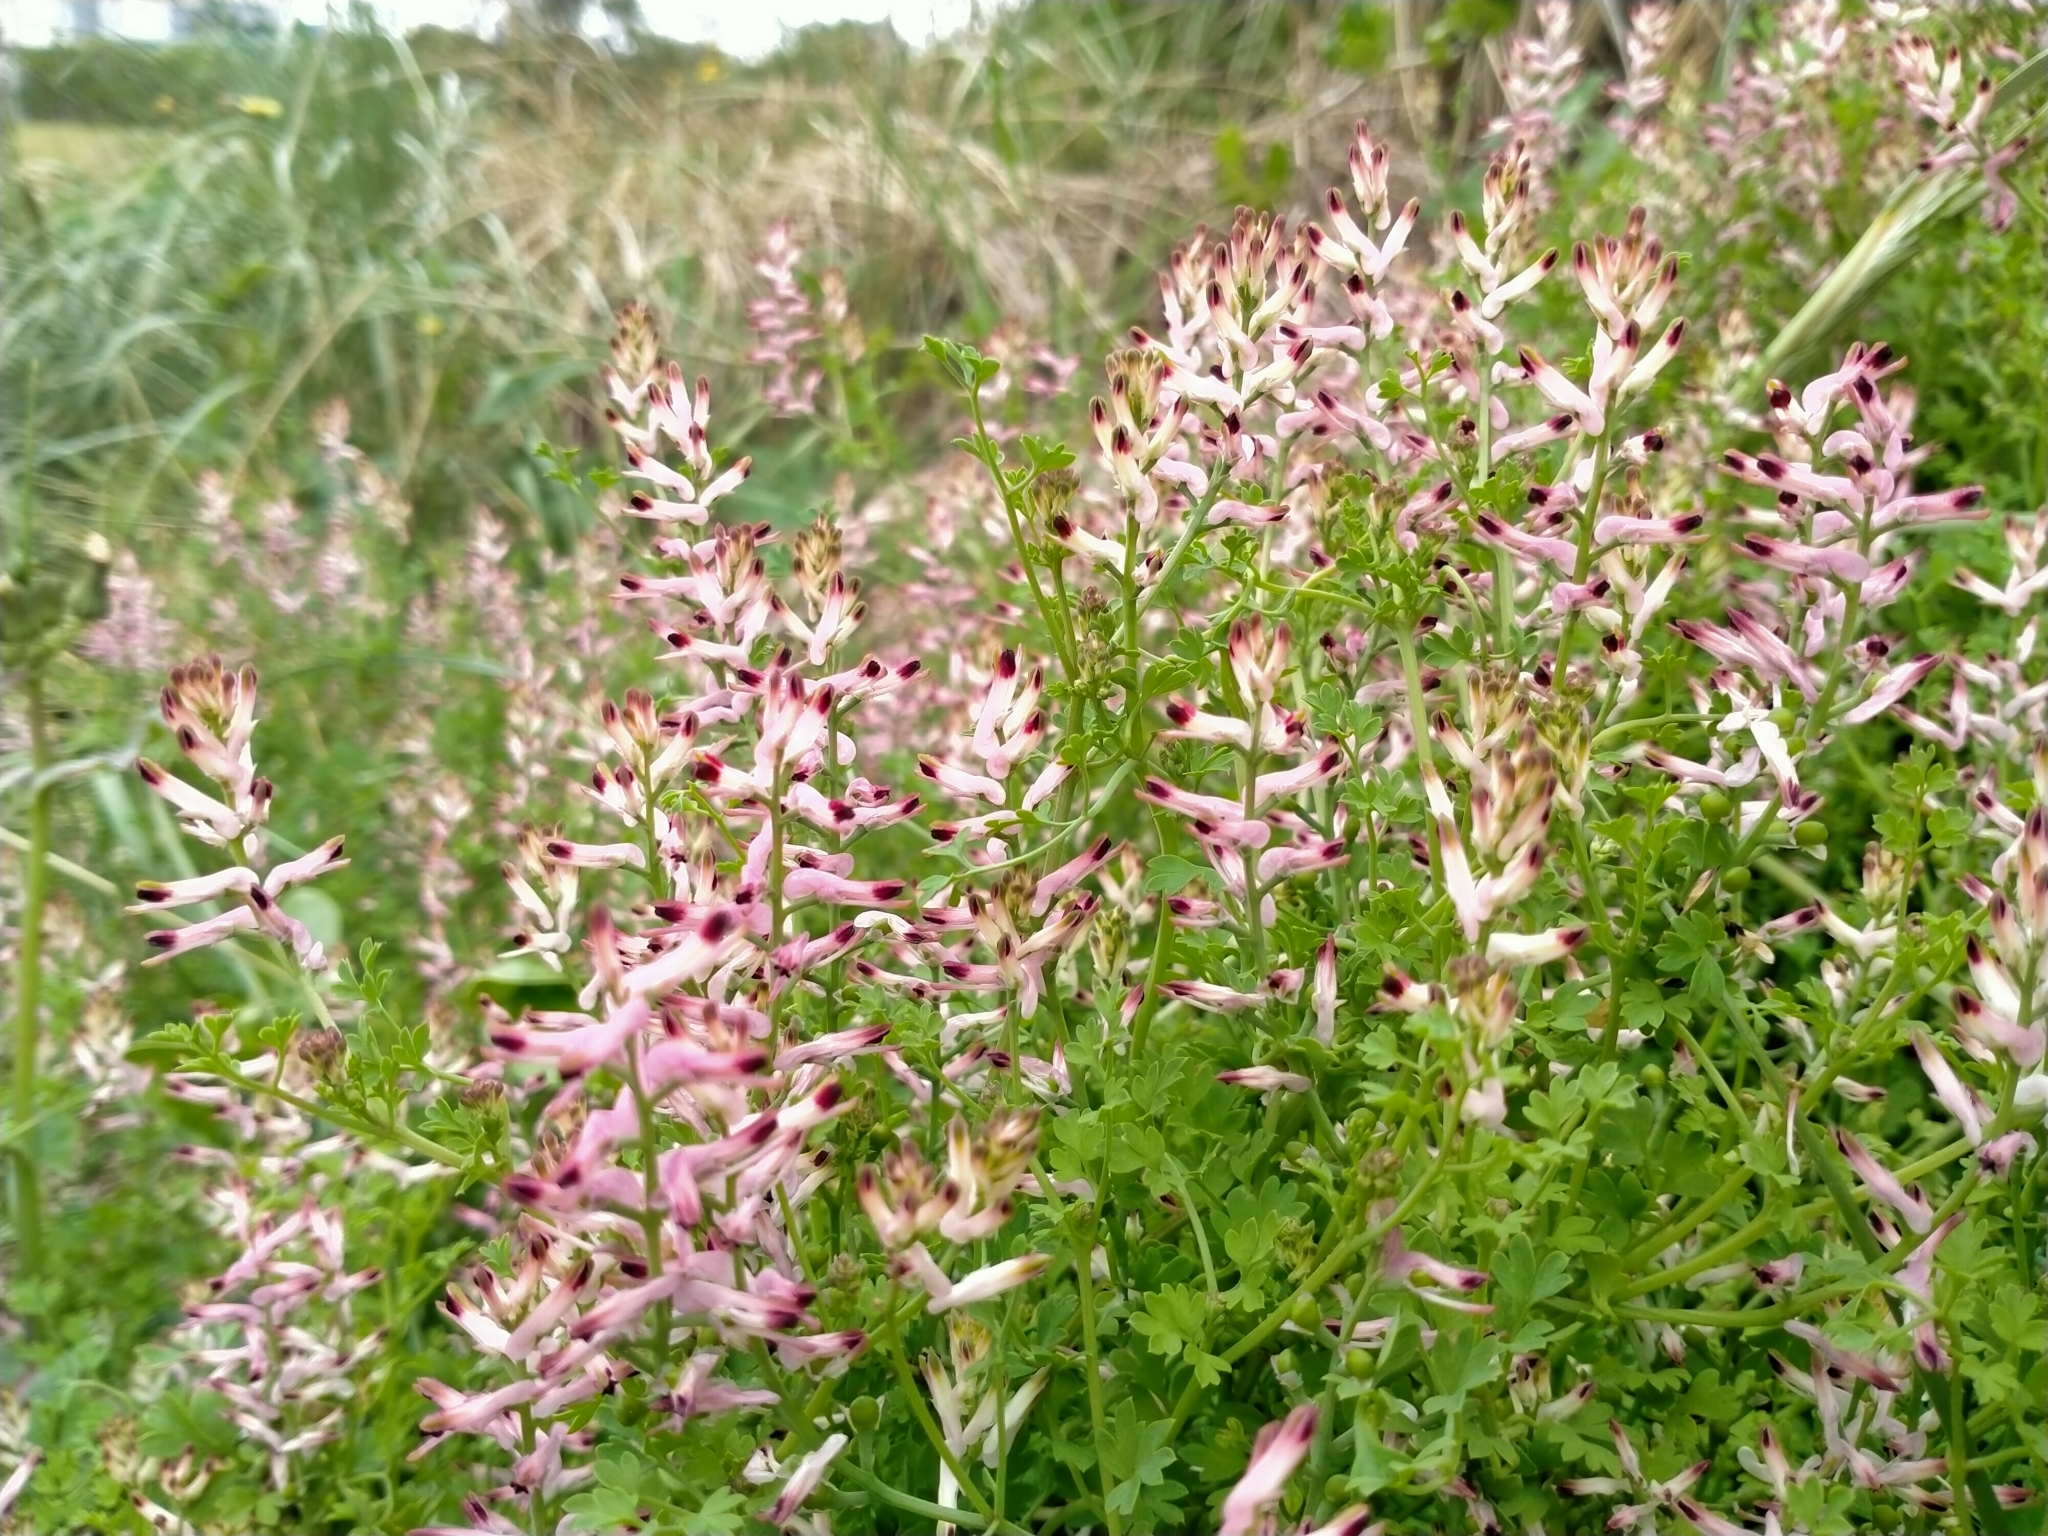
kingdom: Plantae
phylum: Tracheophyta
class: Magnoliopsida
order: Ranunculales
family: Papaveraceae
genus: Fumaria
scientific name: Fumaria bastardii
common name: Tall ramping-fumitory
